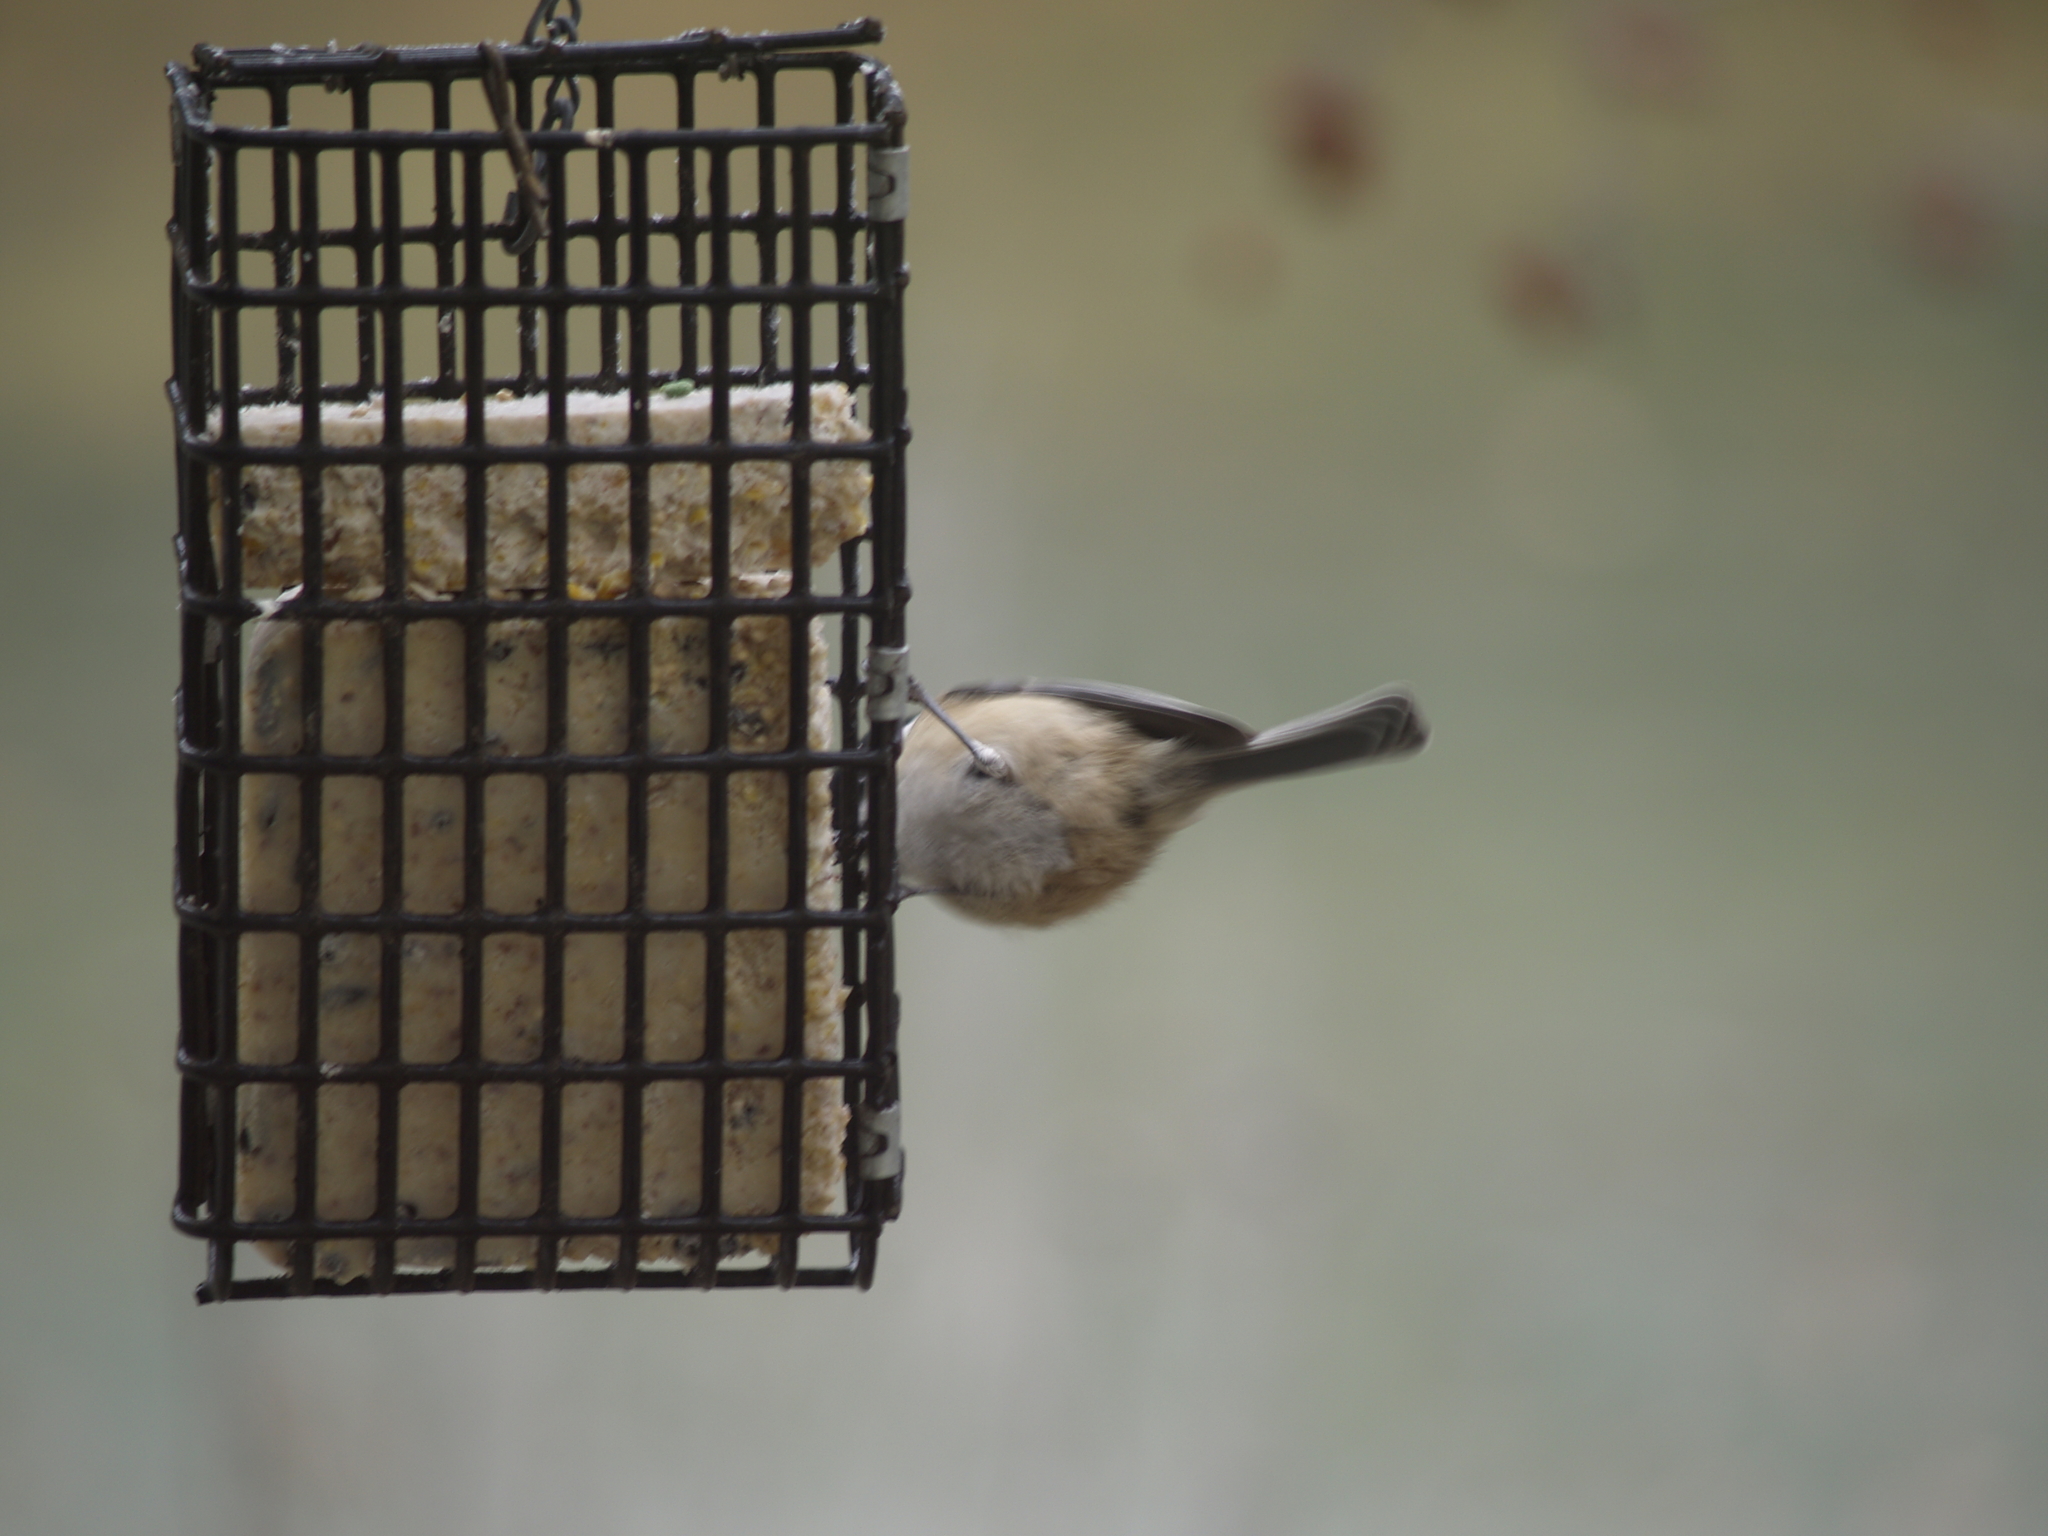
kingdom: Animalia
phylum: Chordata
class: Aves
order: Passeriformes
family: Paridae
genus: Poecile
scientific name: Poecile atricapillus
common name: Black-capped chickadee
